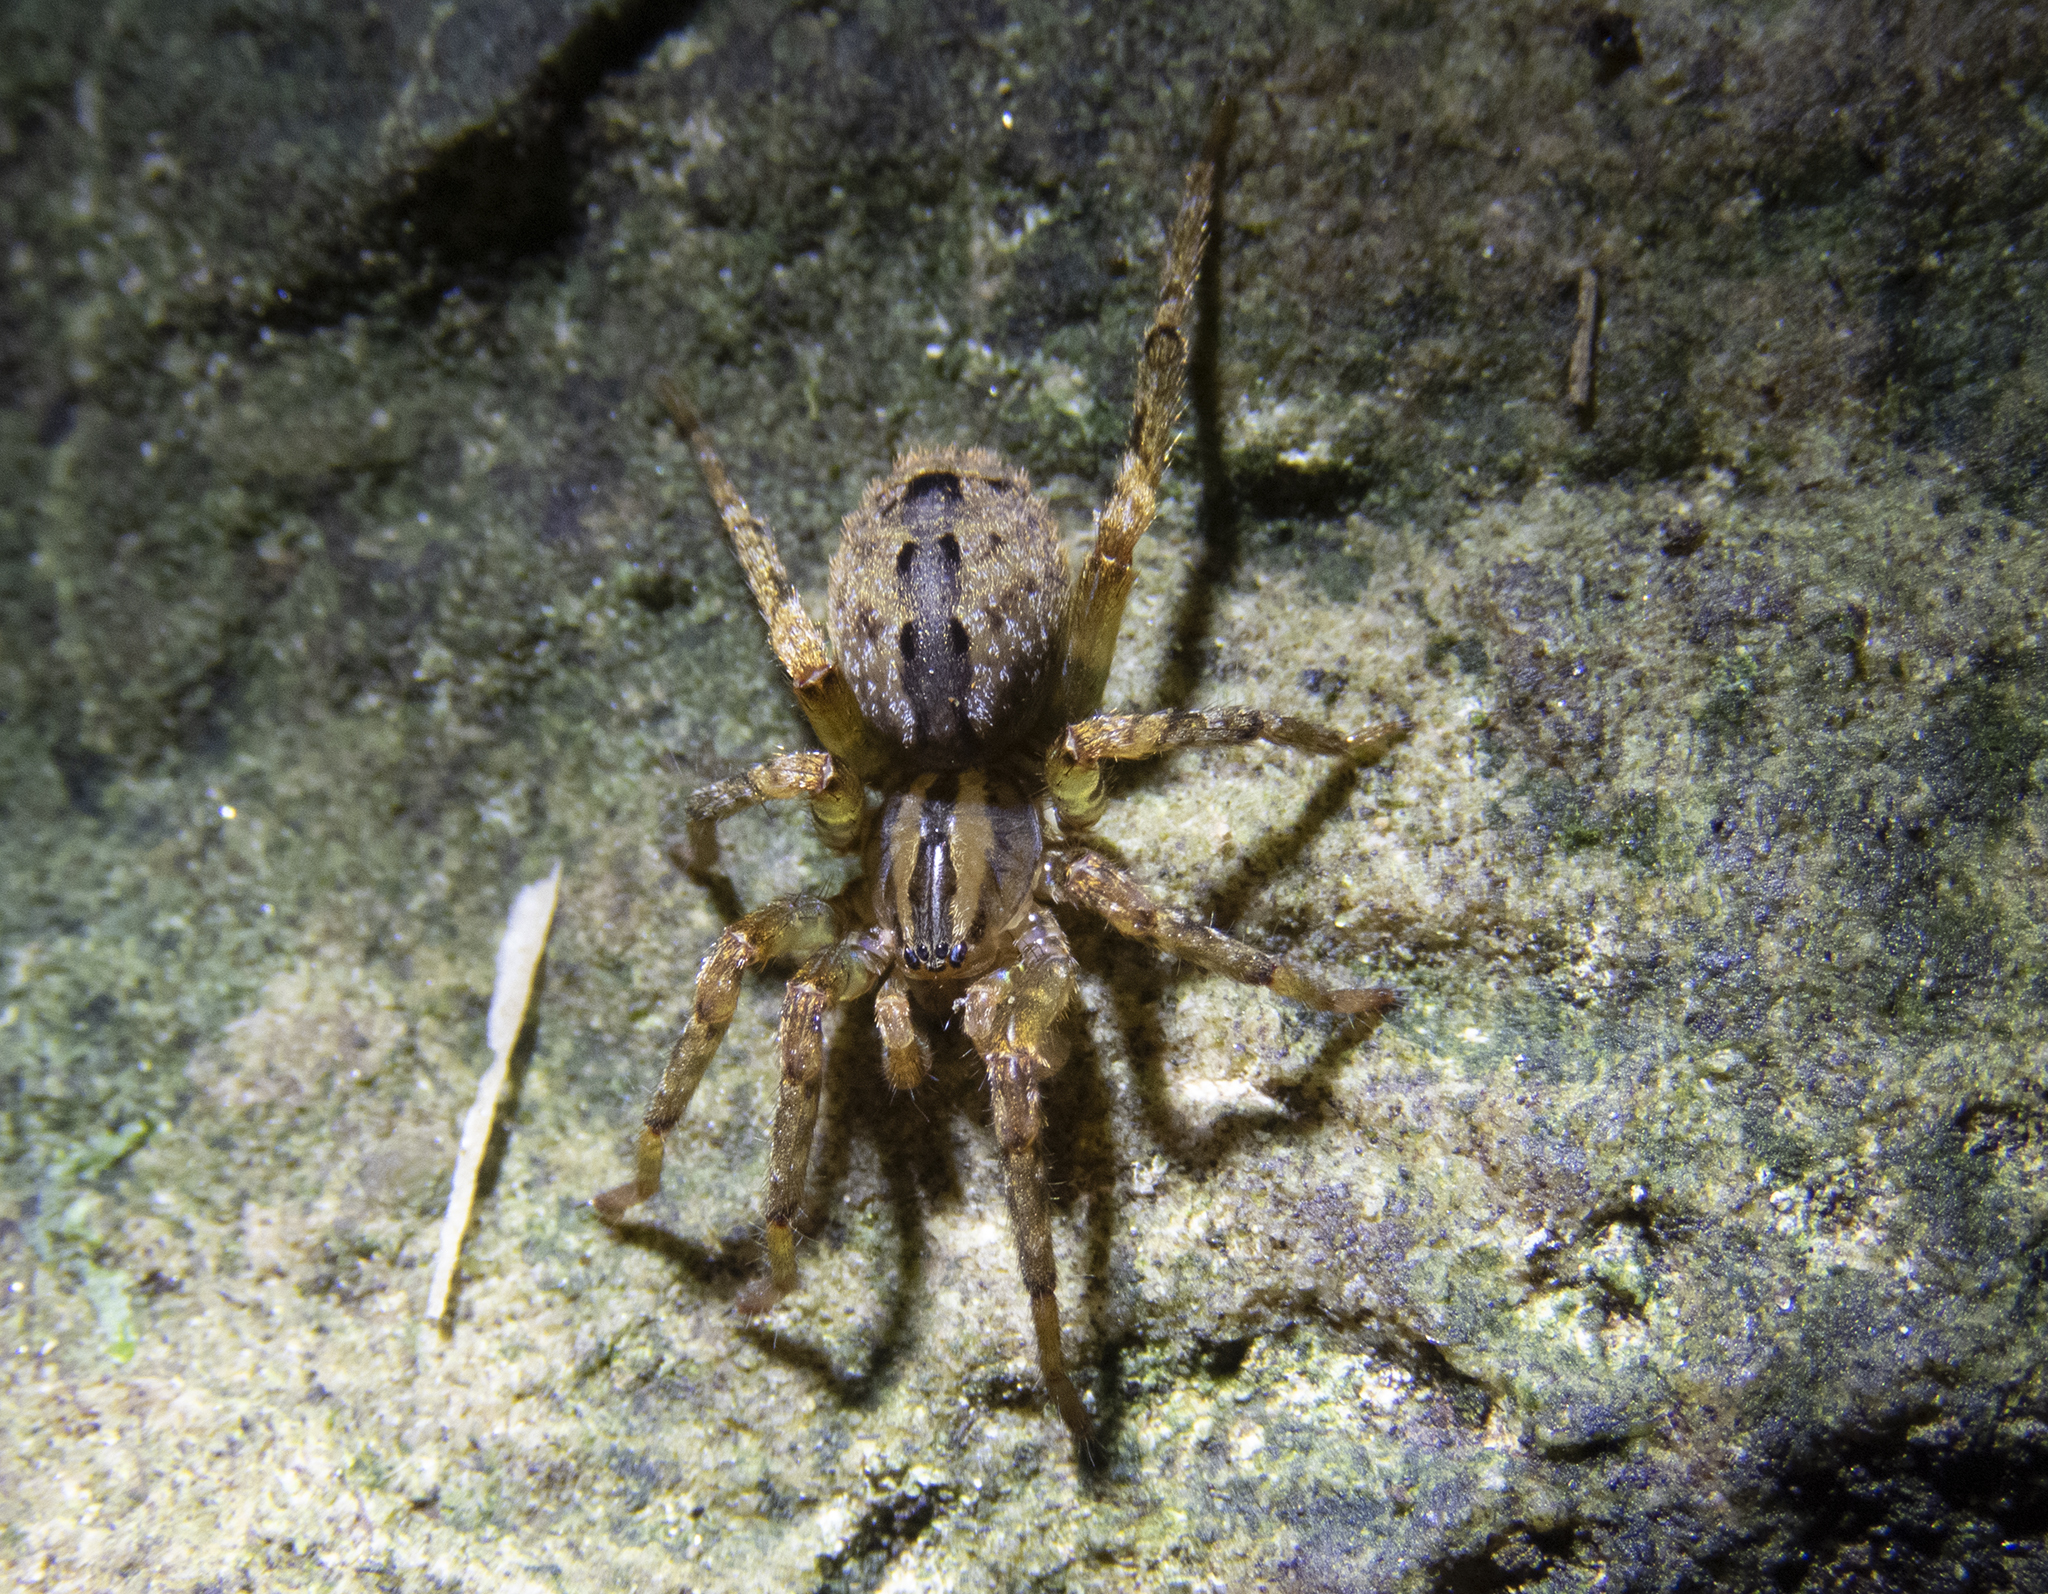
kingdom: Animalia
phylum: Arthropoda
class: Arachnida
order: Araneae
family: Gradungulidae
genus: Gradungula
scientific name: Gradungula sorenseni
